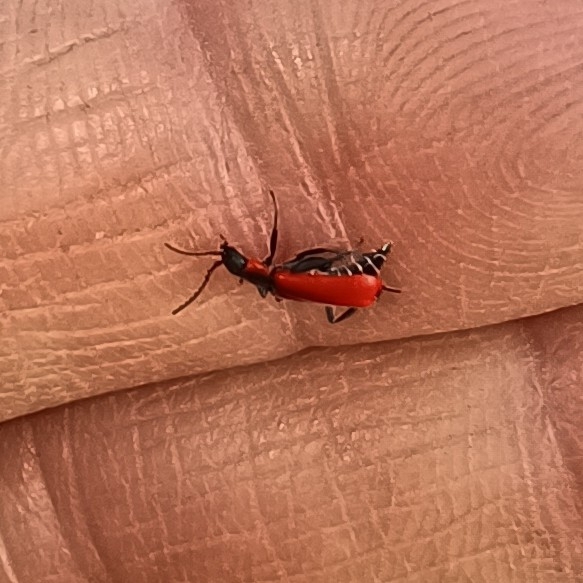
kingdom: Animalia
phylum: Arthropoda
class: Insecta
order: Coleoptera
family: Melyridae
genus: Anthocomus
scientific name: Anthocomus rufus
